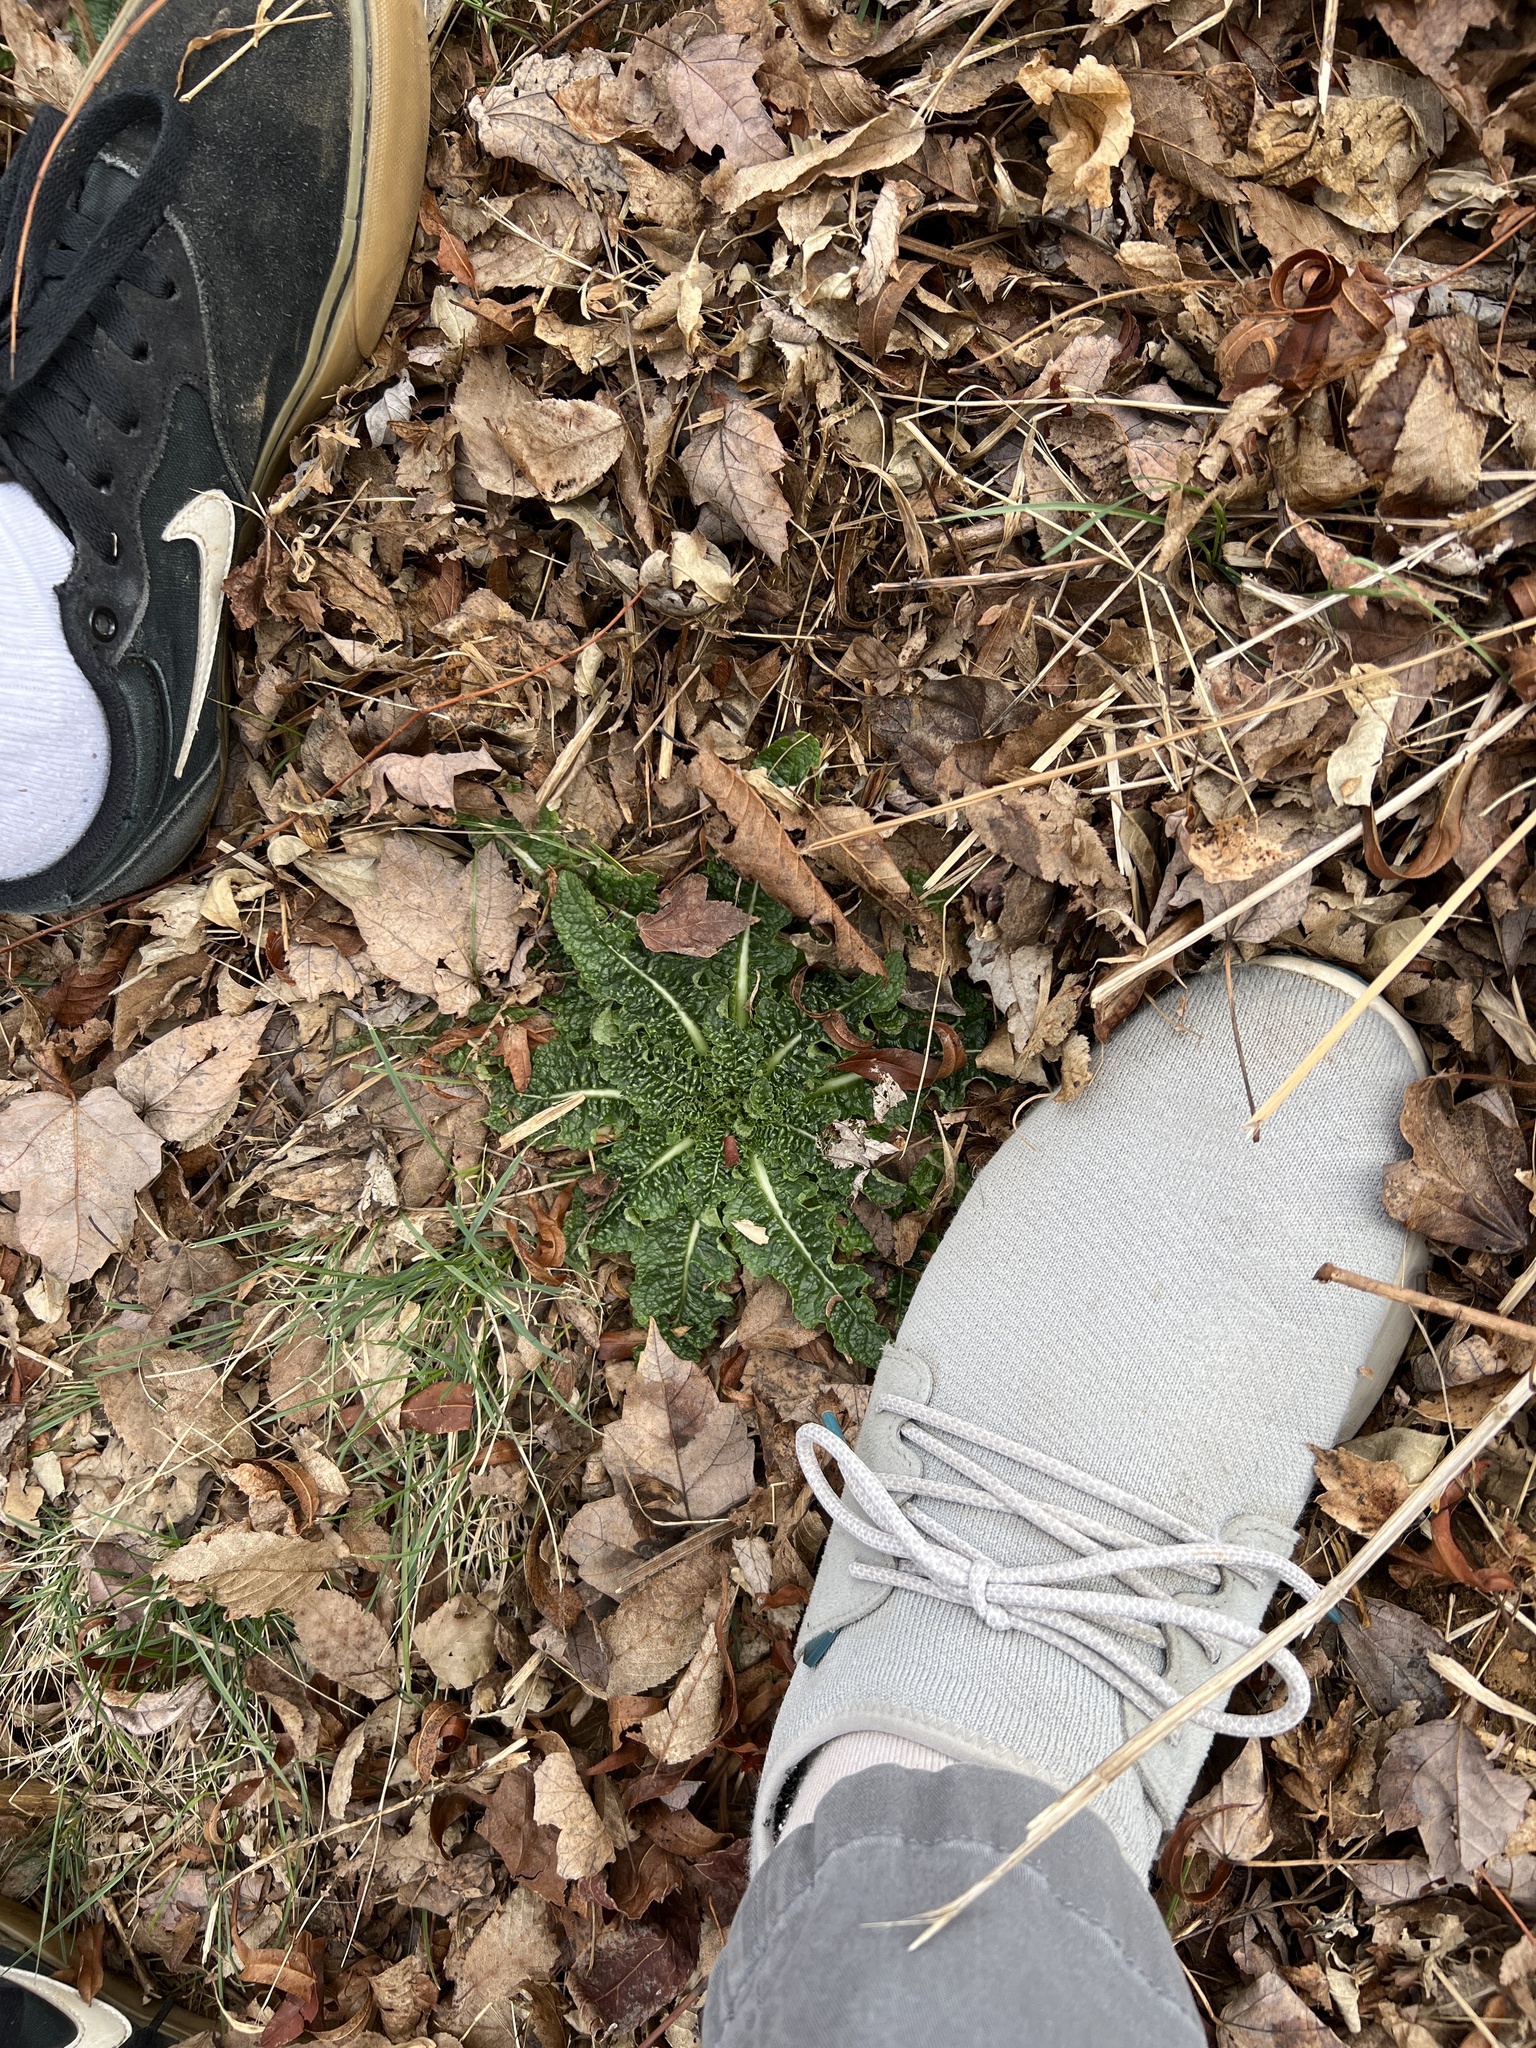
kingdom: Plantae
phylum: Tracheophyta
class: Magnoliopsida
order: Dipsacales
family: Caprifoliaceae
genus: Dipsacus
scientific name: Dipsacus fullonum
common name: Teasel
